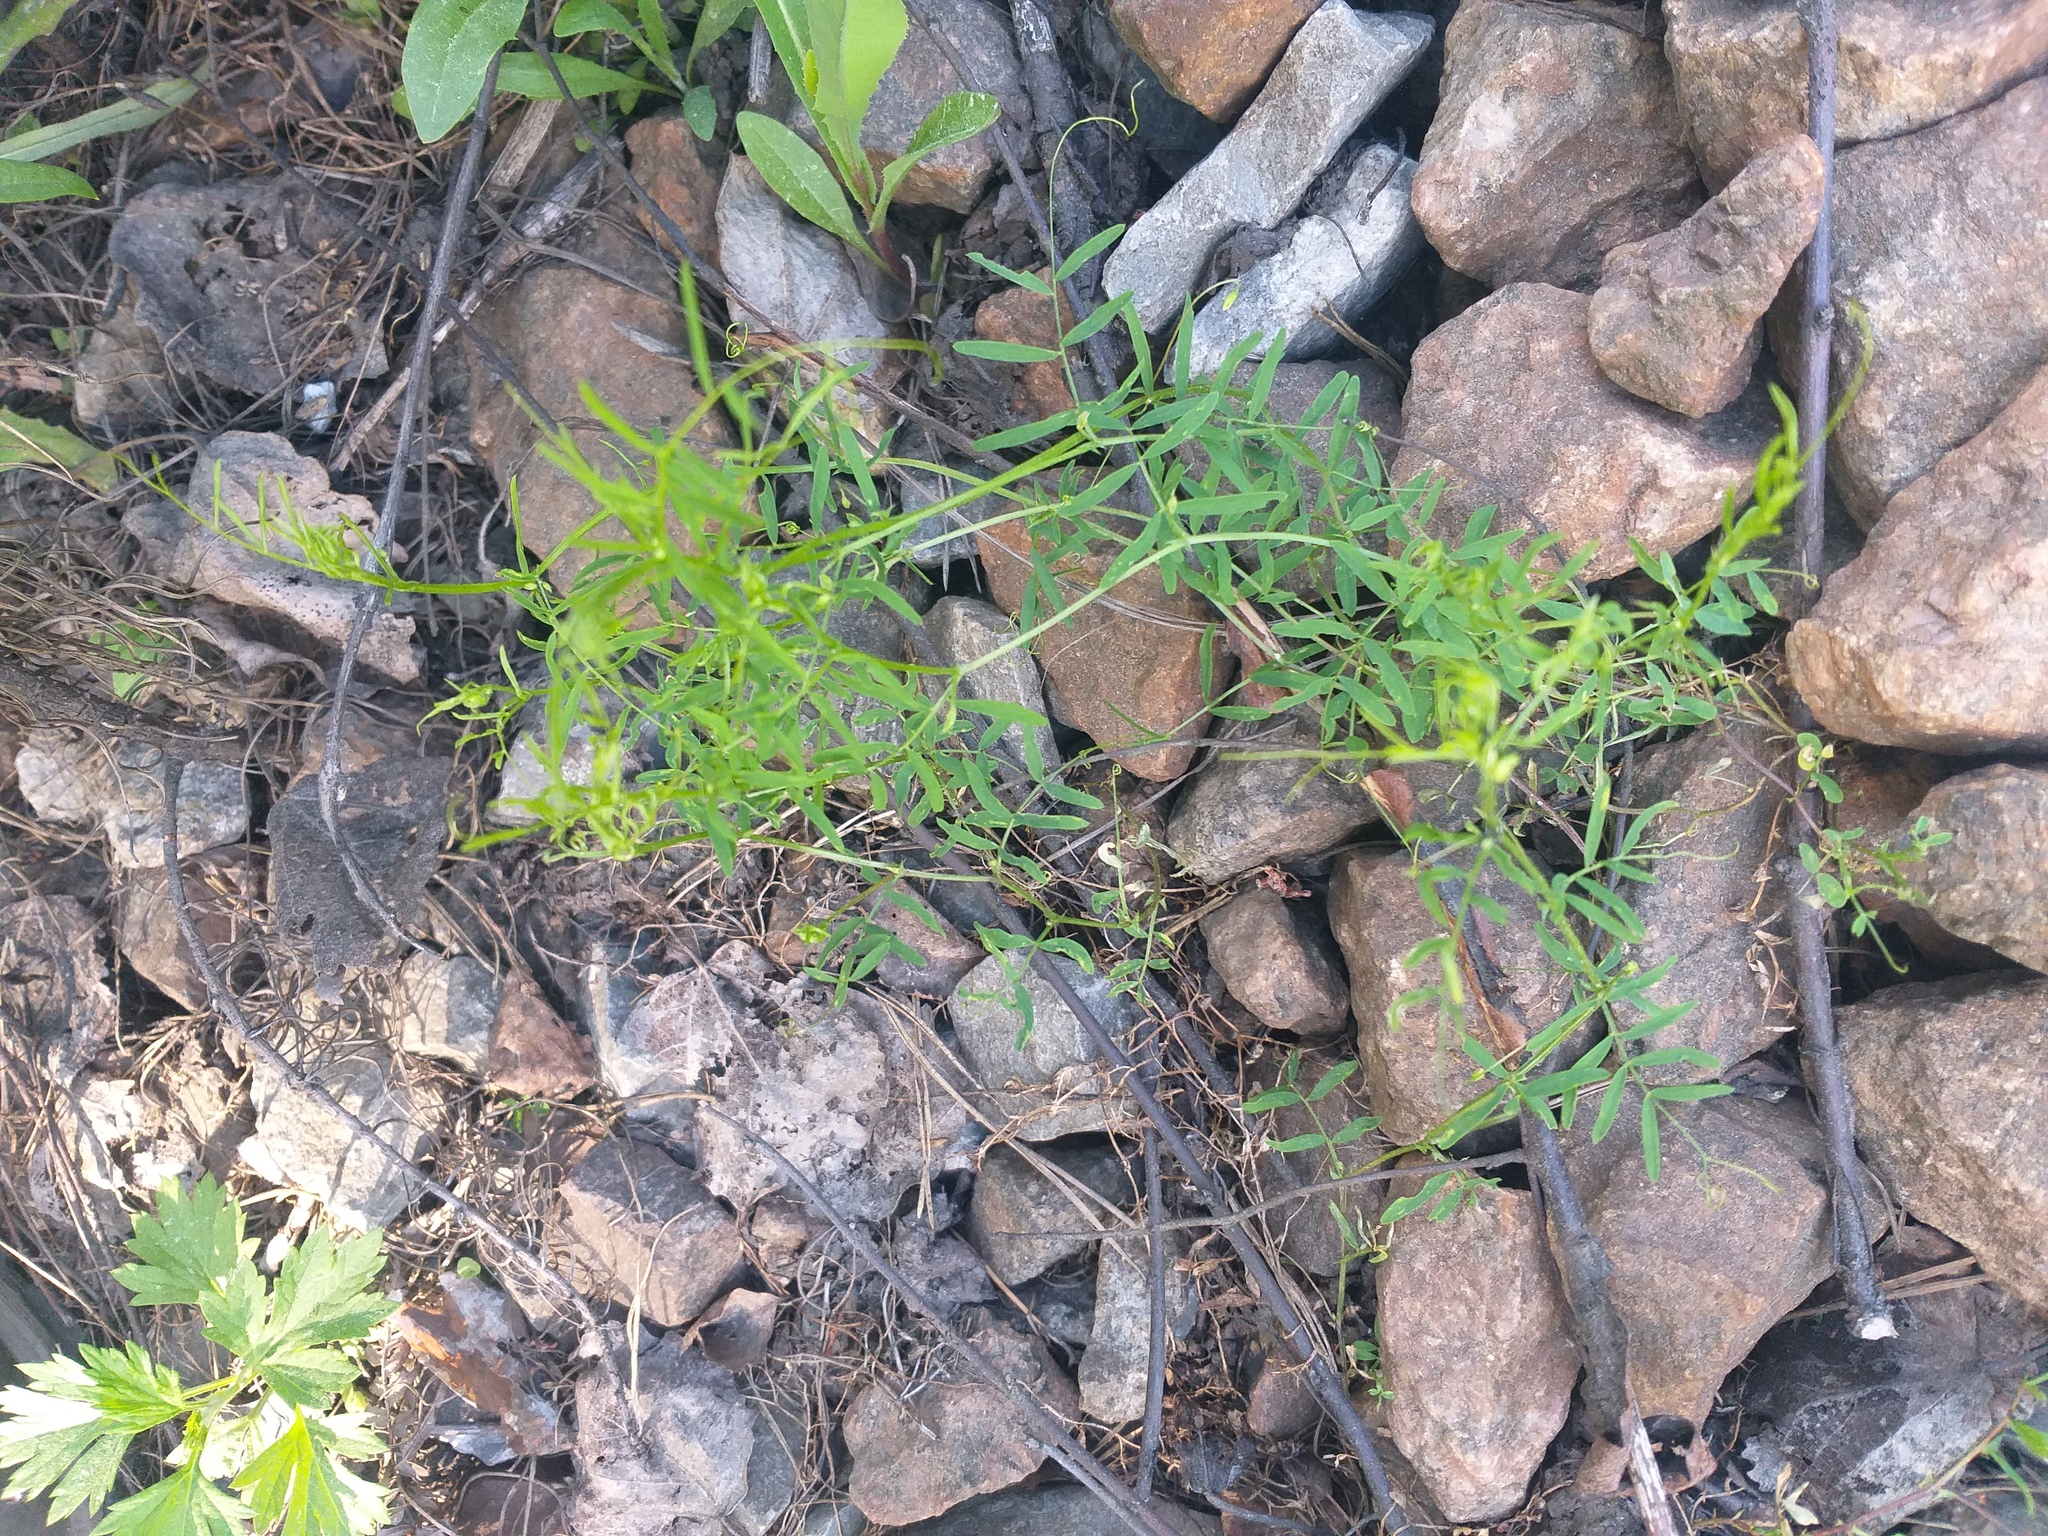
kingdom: Plantae
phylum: Tracheophyta
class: Magnoliopsida
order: Fabales
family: Fabaceae
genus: Vicia
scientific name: Vicia tetrasperma
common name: Smooth tare
